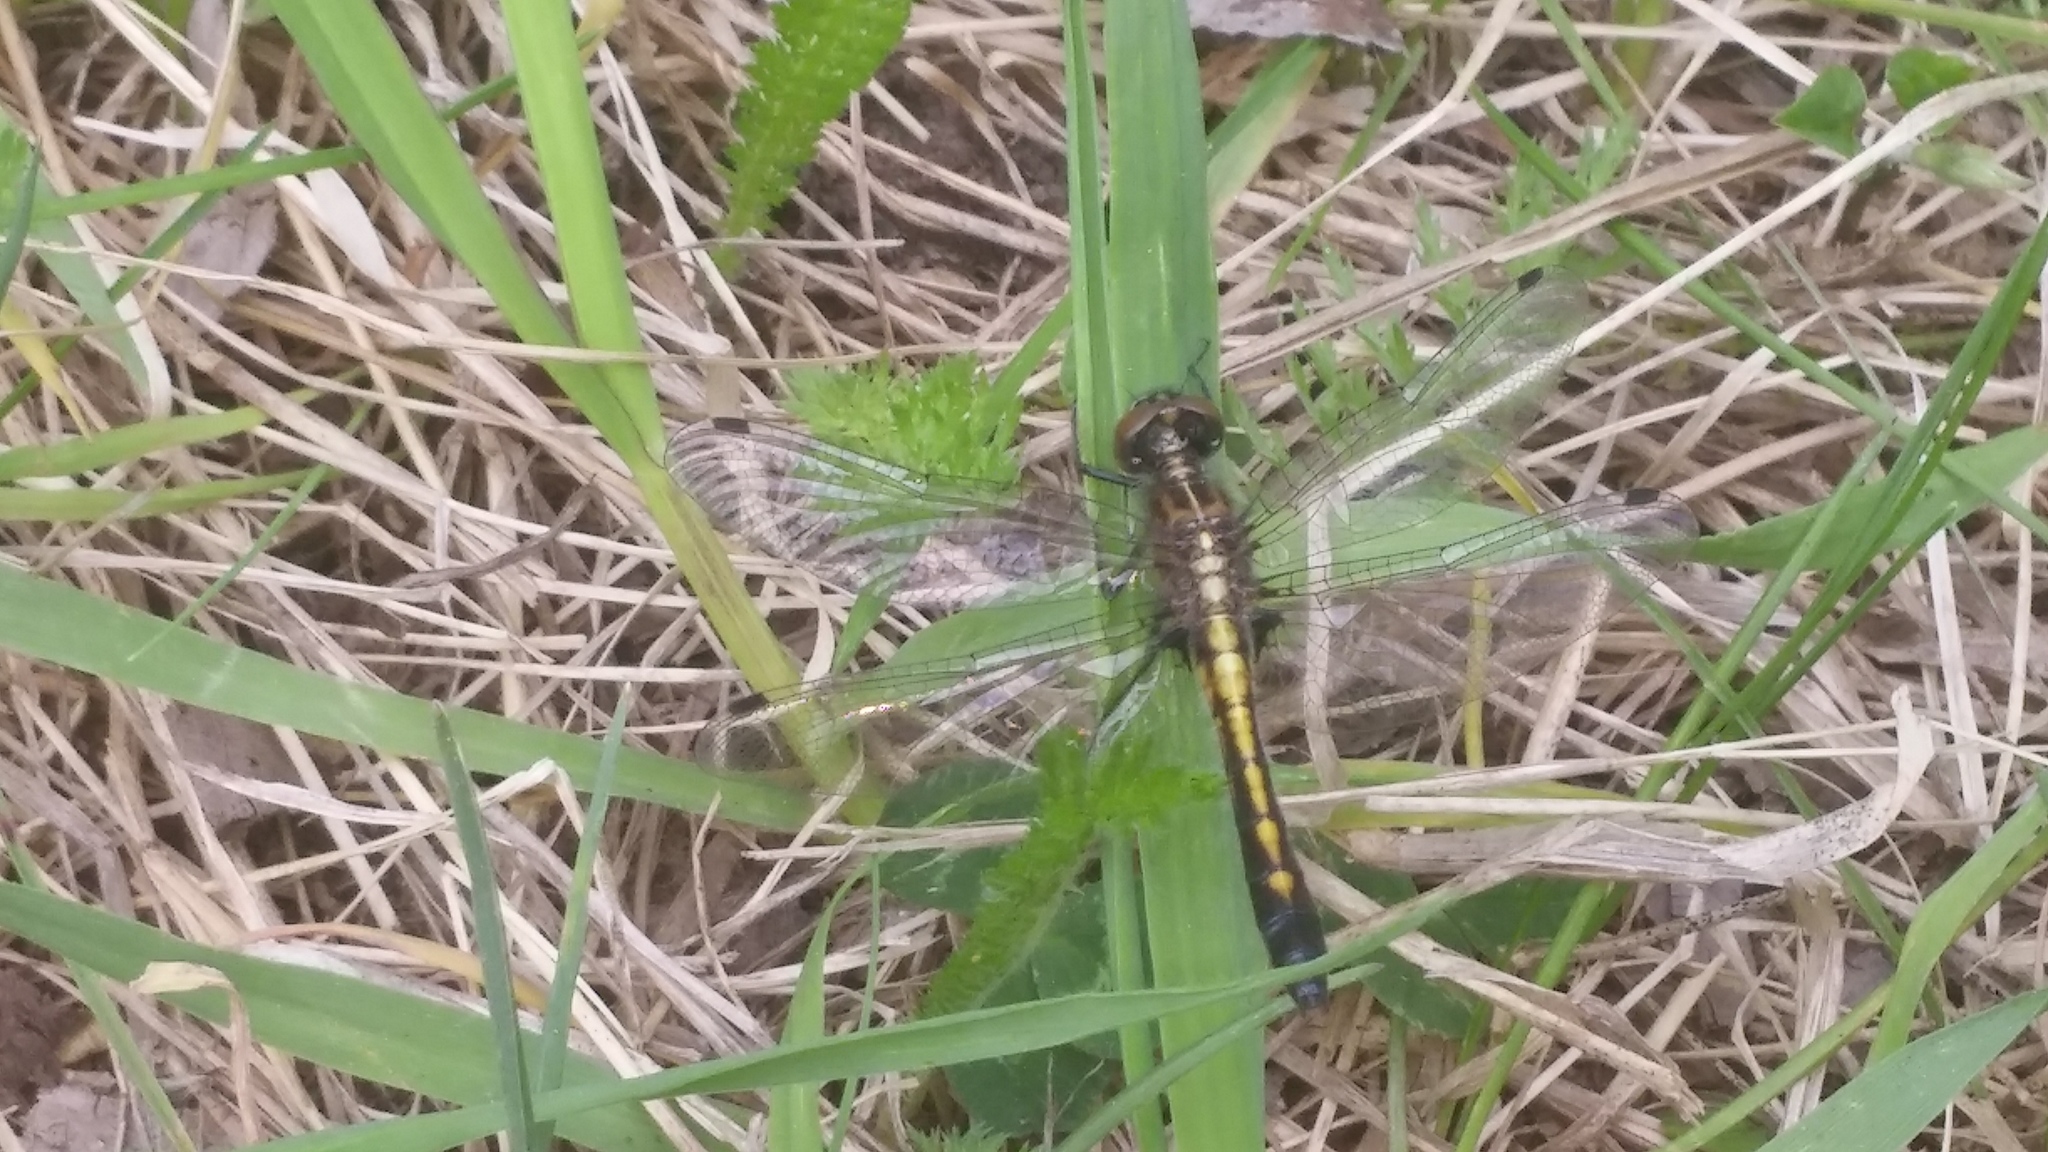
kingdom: Animalia
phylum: Arthropoda
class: Insecta
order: Odonata
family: Libellulidae
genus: Leucorrhinia
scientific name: Leucorrhinia intacta
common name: Dot-tailed whiteface
